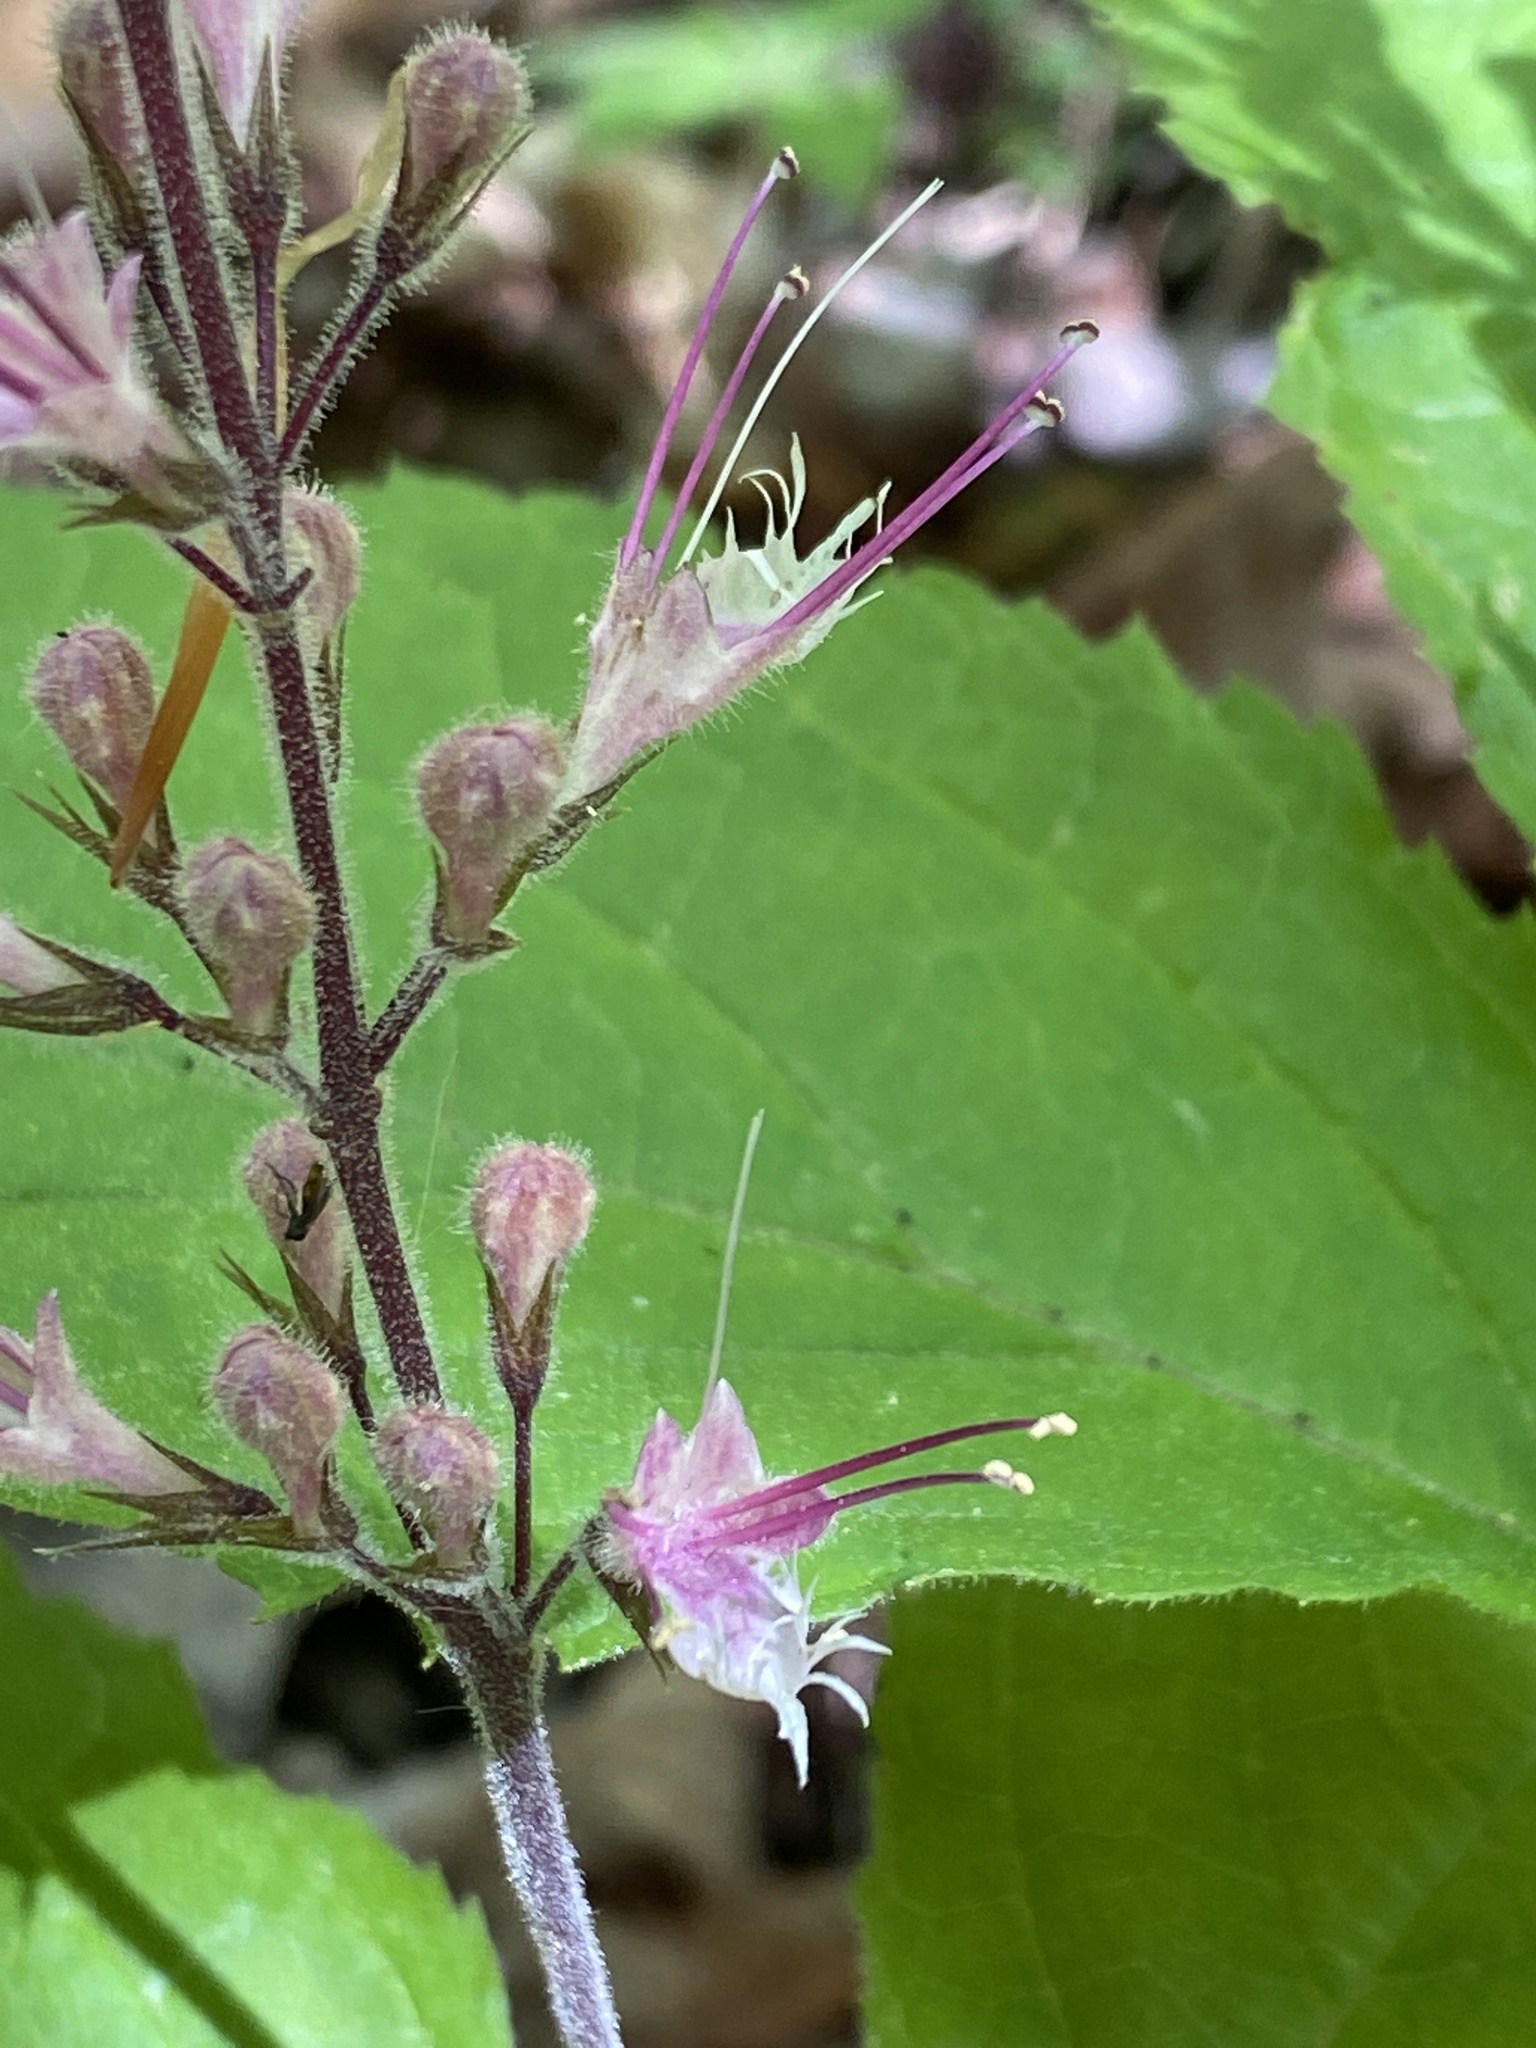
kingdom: Plantae
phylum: Tracheophyta
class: Magnoliopsida
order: Lamiales
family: Lamiaceae
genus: Collinsonia
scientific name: Collinsonia verticillata
